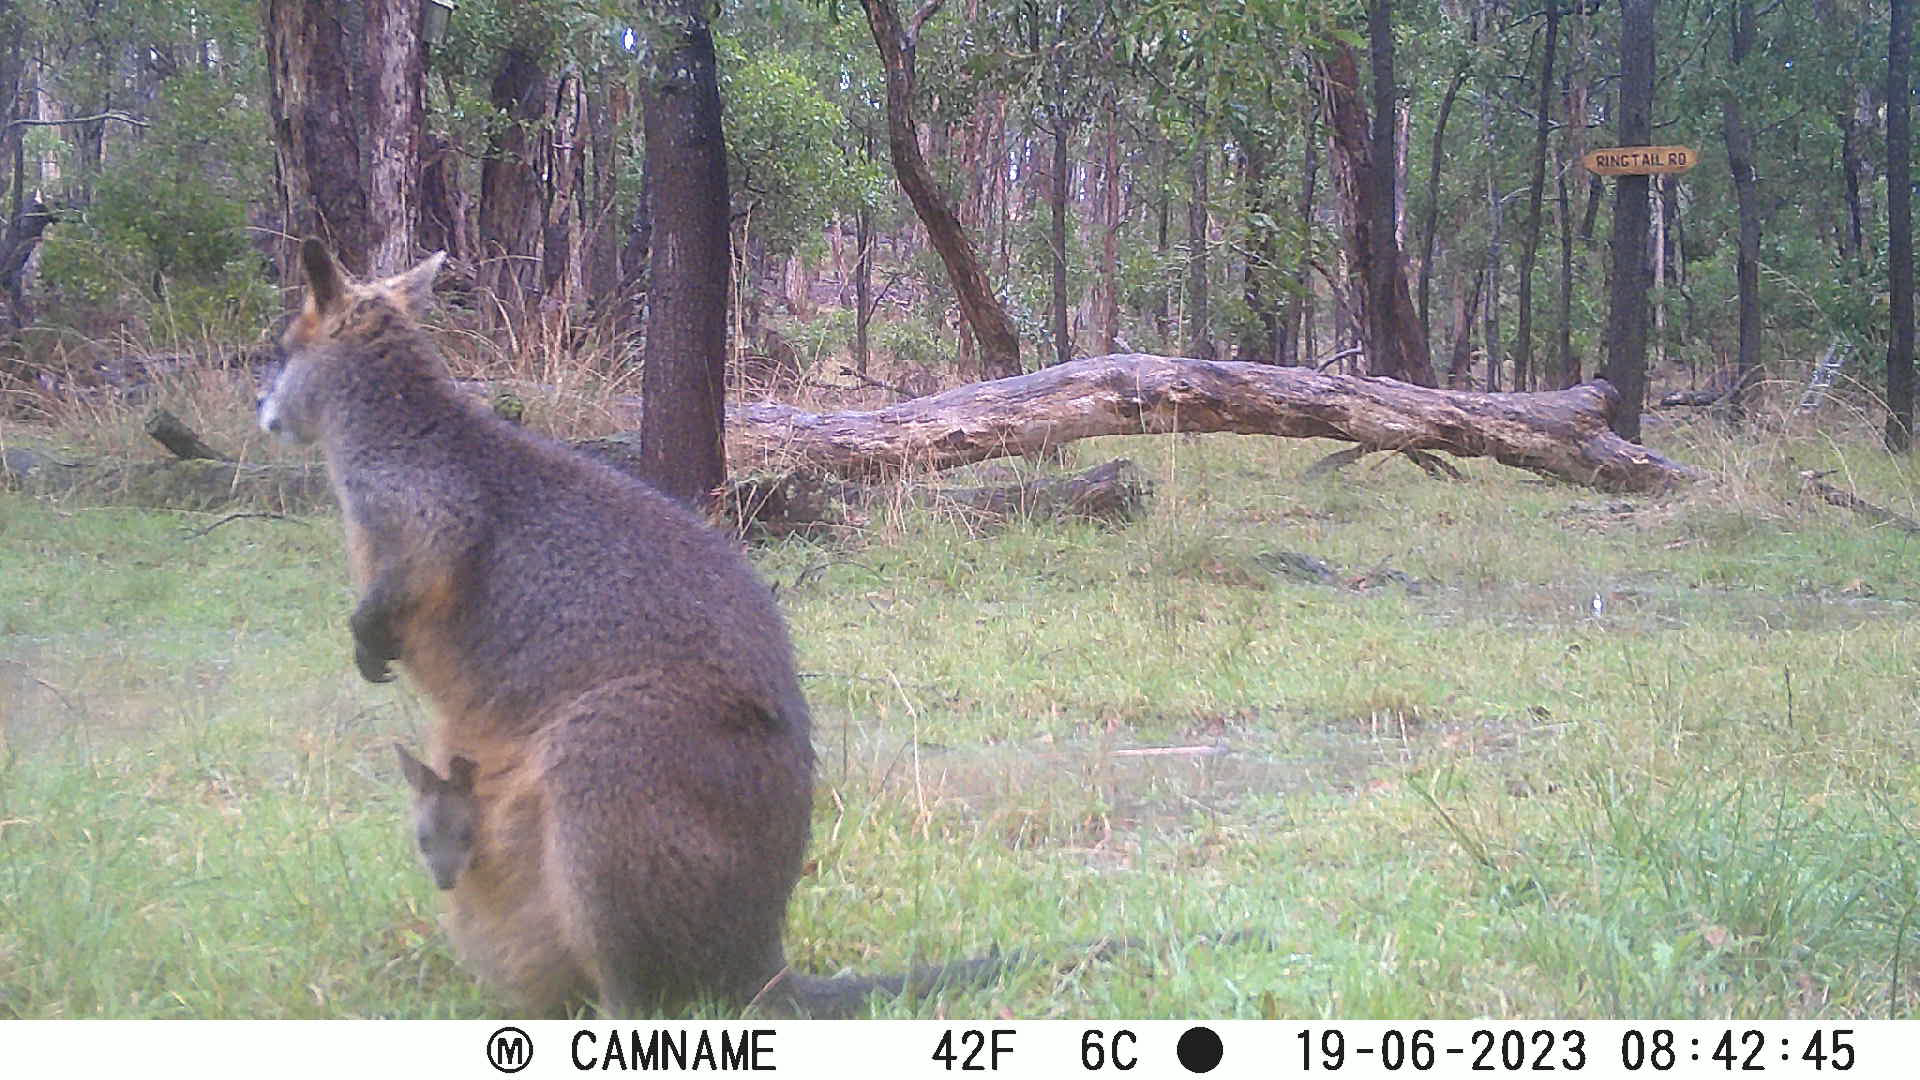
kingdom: Animalia
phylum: Chordata
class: Mammalia
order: Diprotodontia
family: Macropodidae
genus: Wallabia
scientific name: Wallabia bicolor
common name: Swamp wallaby
